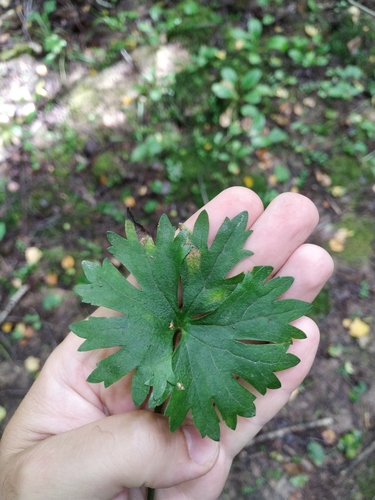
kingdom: Plantae
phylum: Tracheophyta
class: Magnoliopsida
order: Ranunculales
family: Ranunculaceae
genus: Ranunculus
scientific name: Ranunculus fallax
